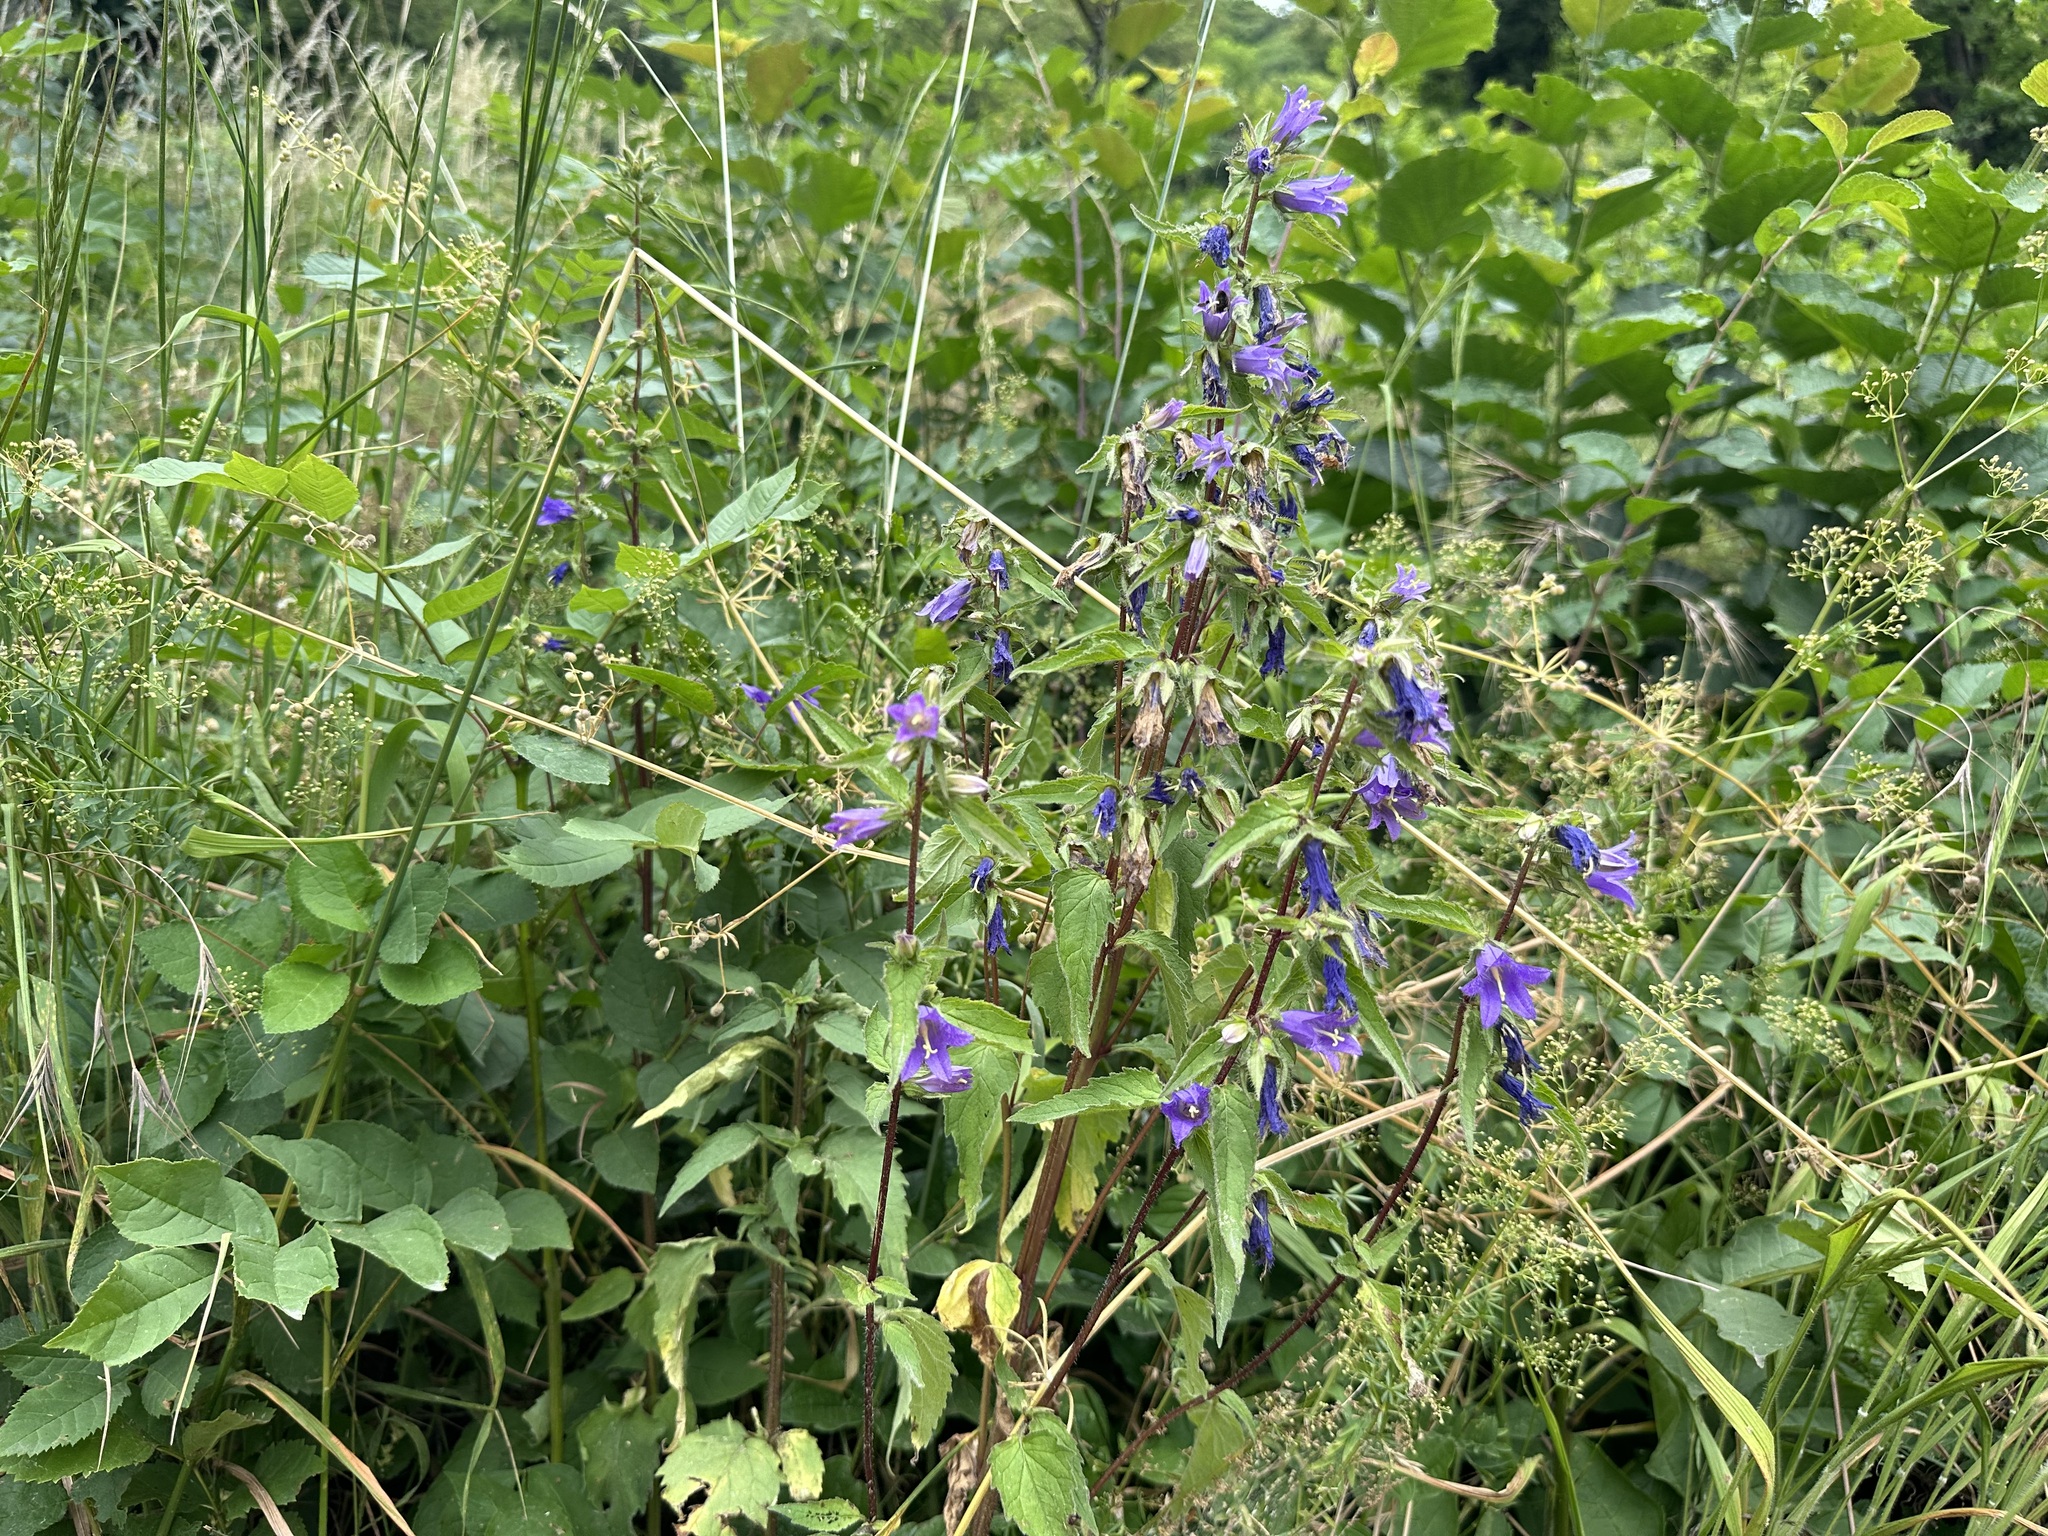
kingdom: Plantae
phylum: Tracheophyta
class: Magnoliopsida
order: Asterales
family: Campanulaceae
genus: Campanula
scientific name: Campanula trachelium
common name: Nettle-leaved bellflower
